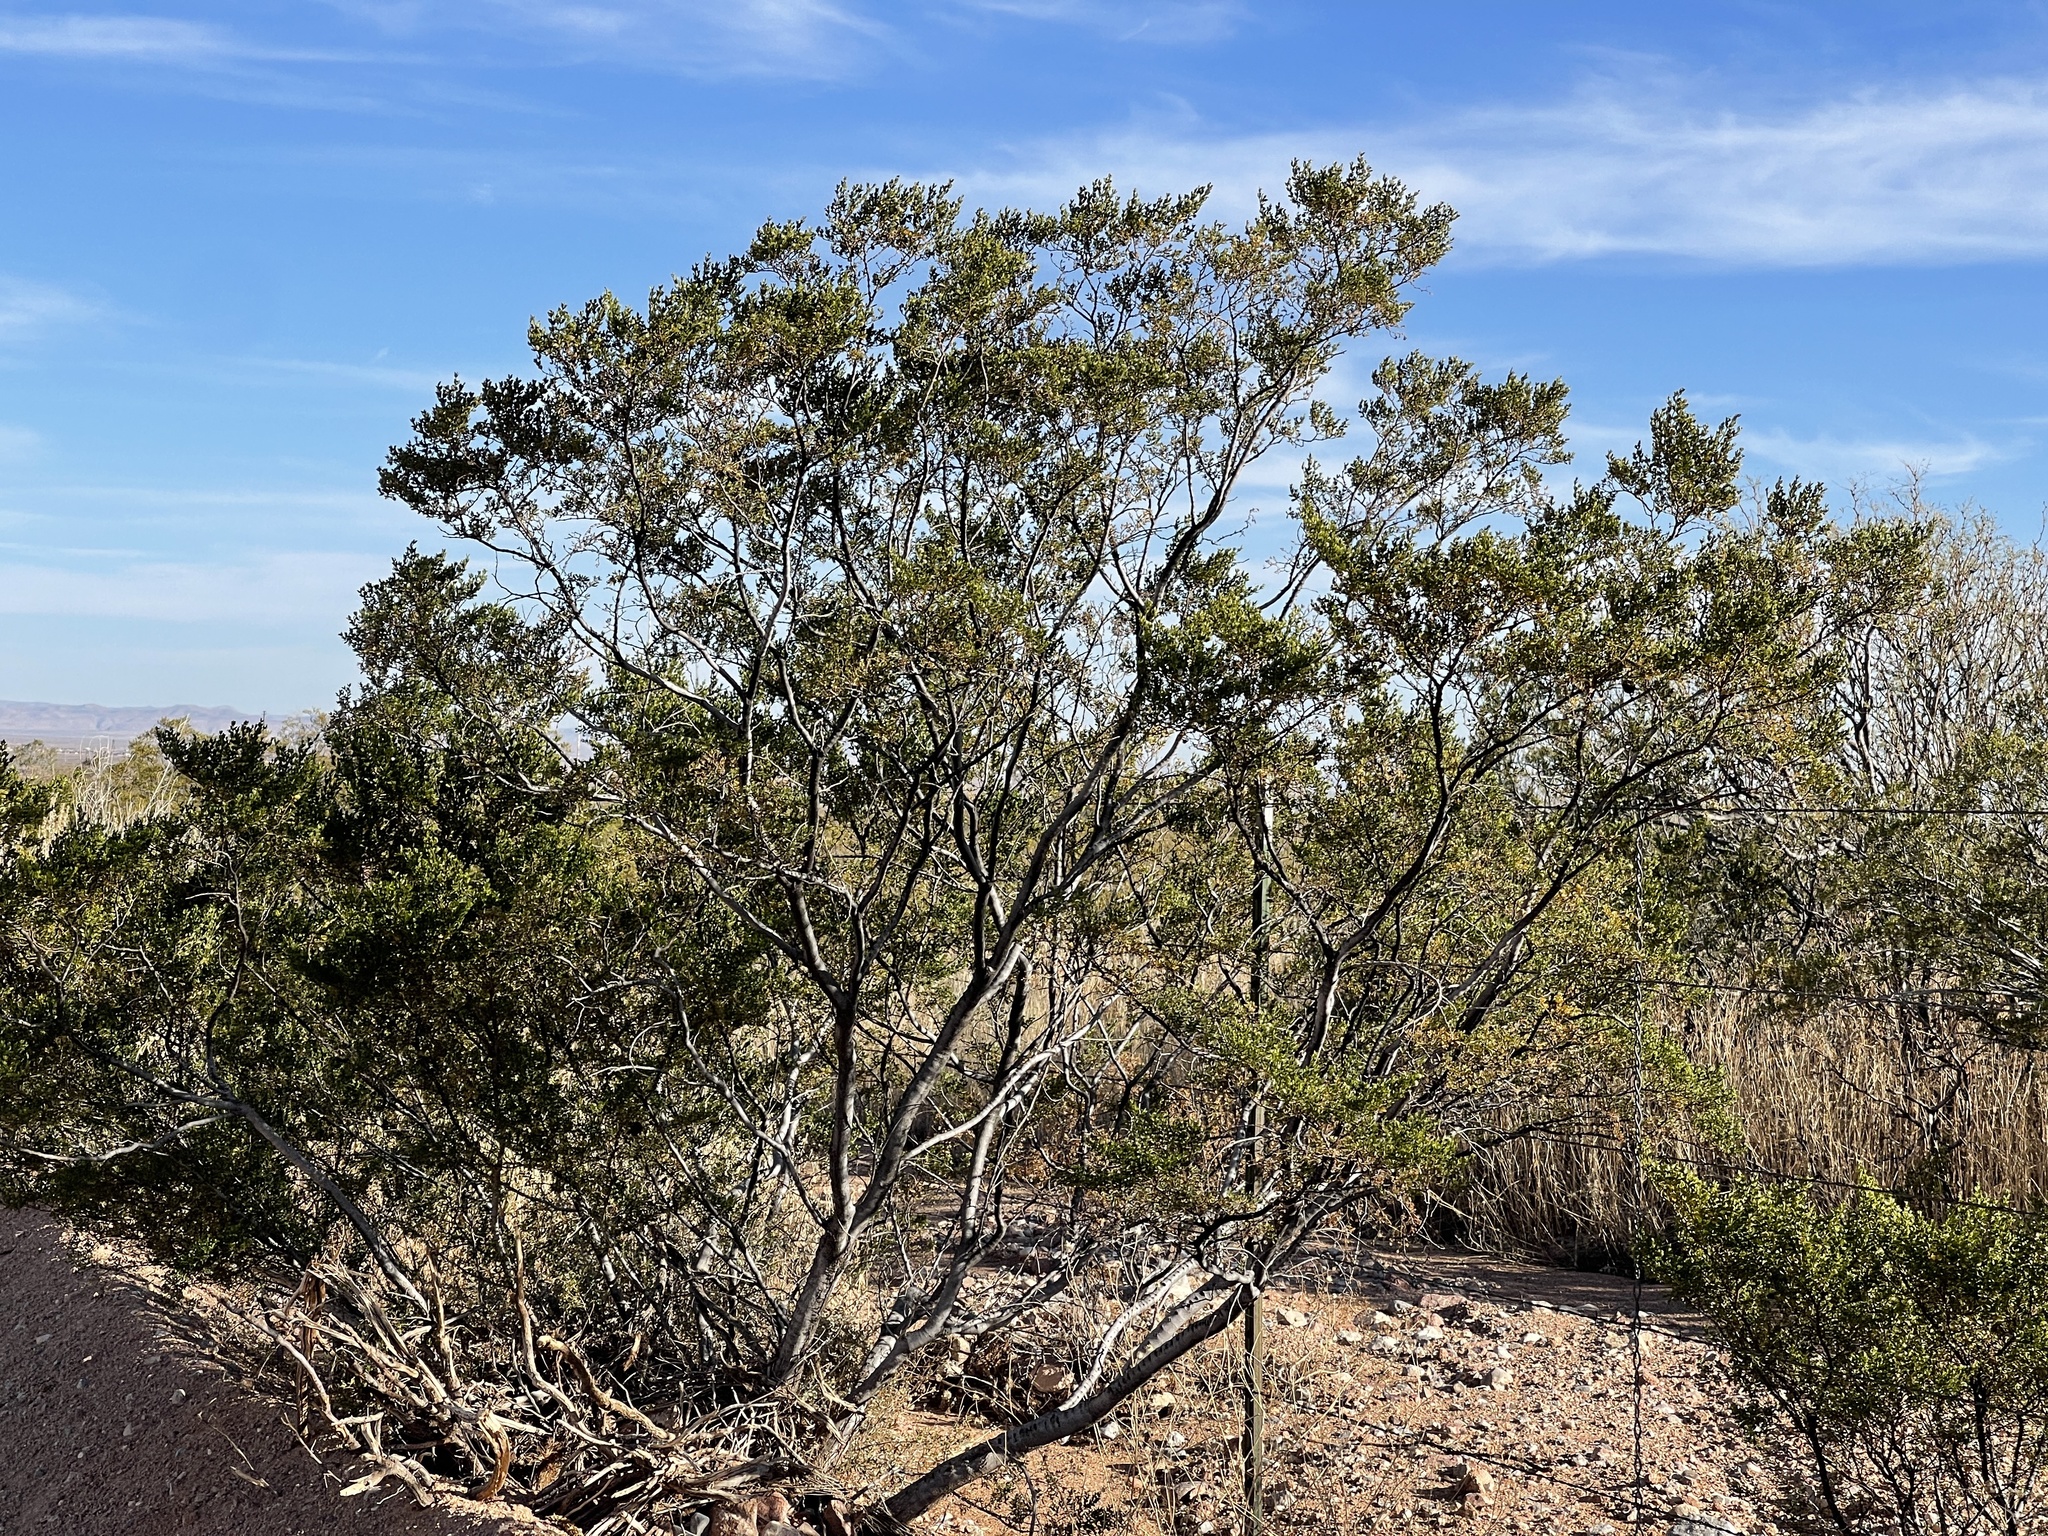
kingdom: Plantae
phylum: Tracheophyta
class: Magnoliopsida
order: Zygophyllales
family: Zygophyllaceae
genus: Larrea
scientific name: Larrea tridentata
